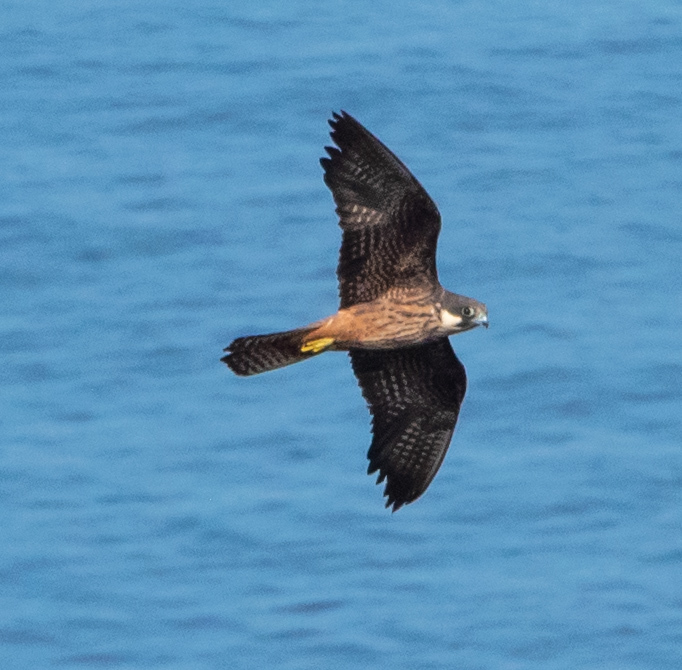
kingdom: Animalia
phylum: Chordata
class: Aves
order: Falconiformes
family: Falconidae
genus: Falco
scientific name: Falco eleonorae
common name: Eleonora's falcon
